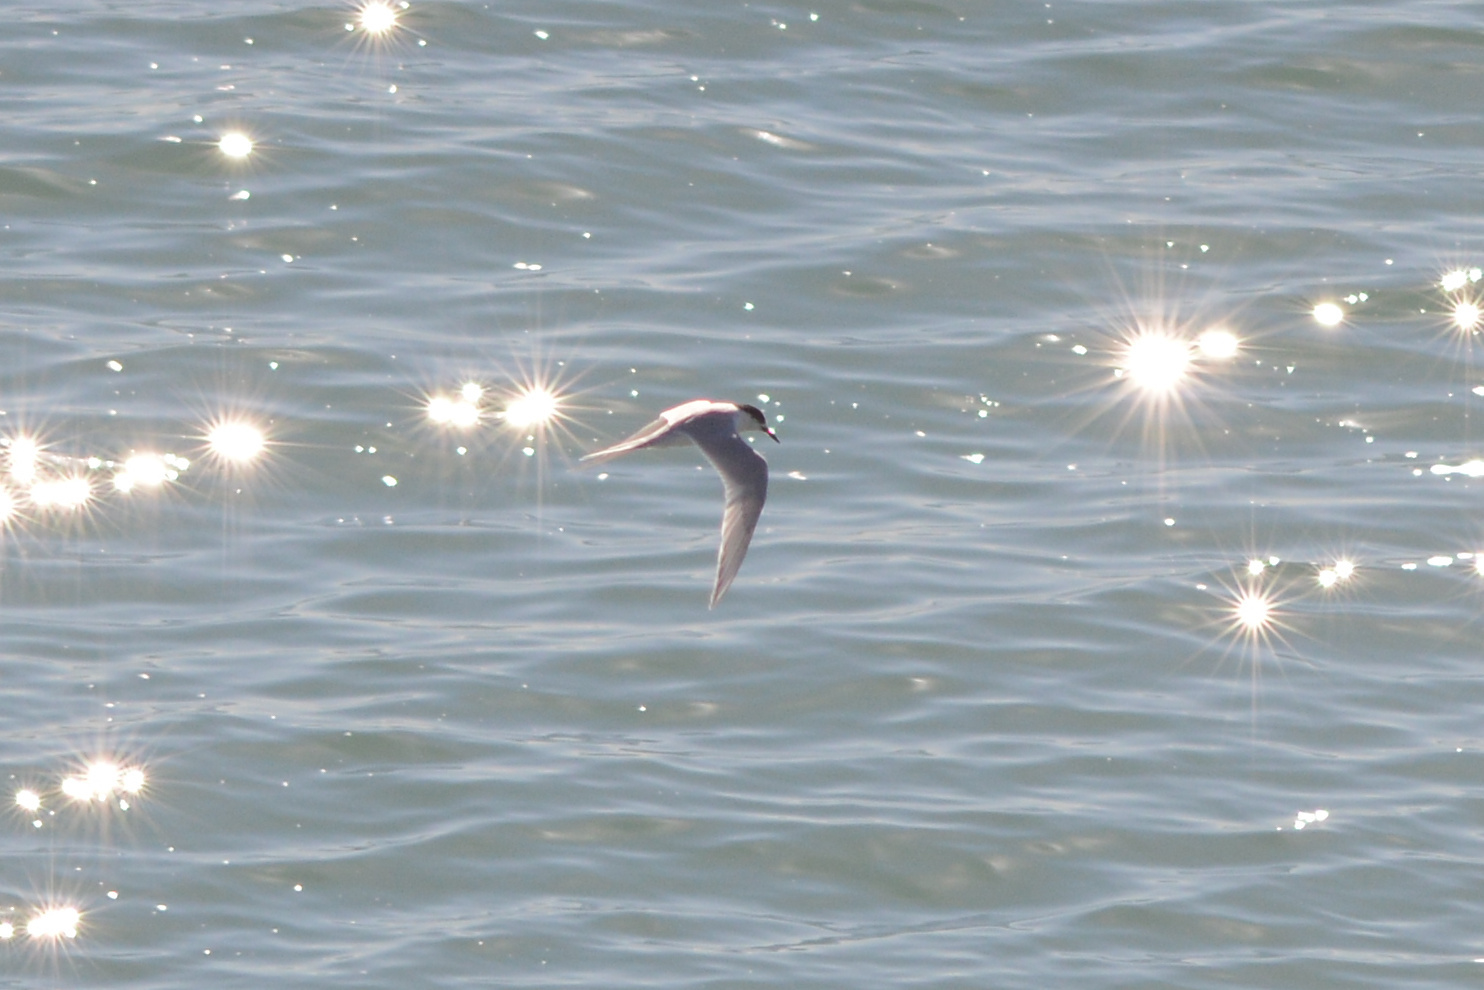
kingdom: Animalia
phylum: Chordata
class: Aves
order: Charadriiformes
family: Laridae
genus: Sterna
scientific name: Sterna striata
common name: White-fronted tern
